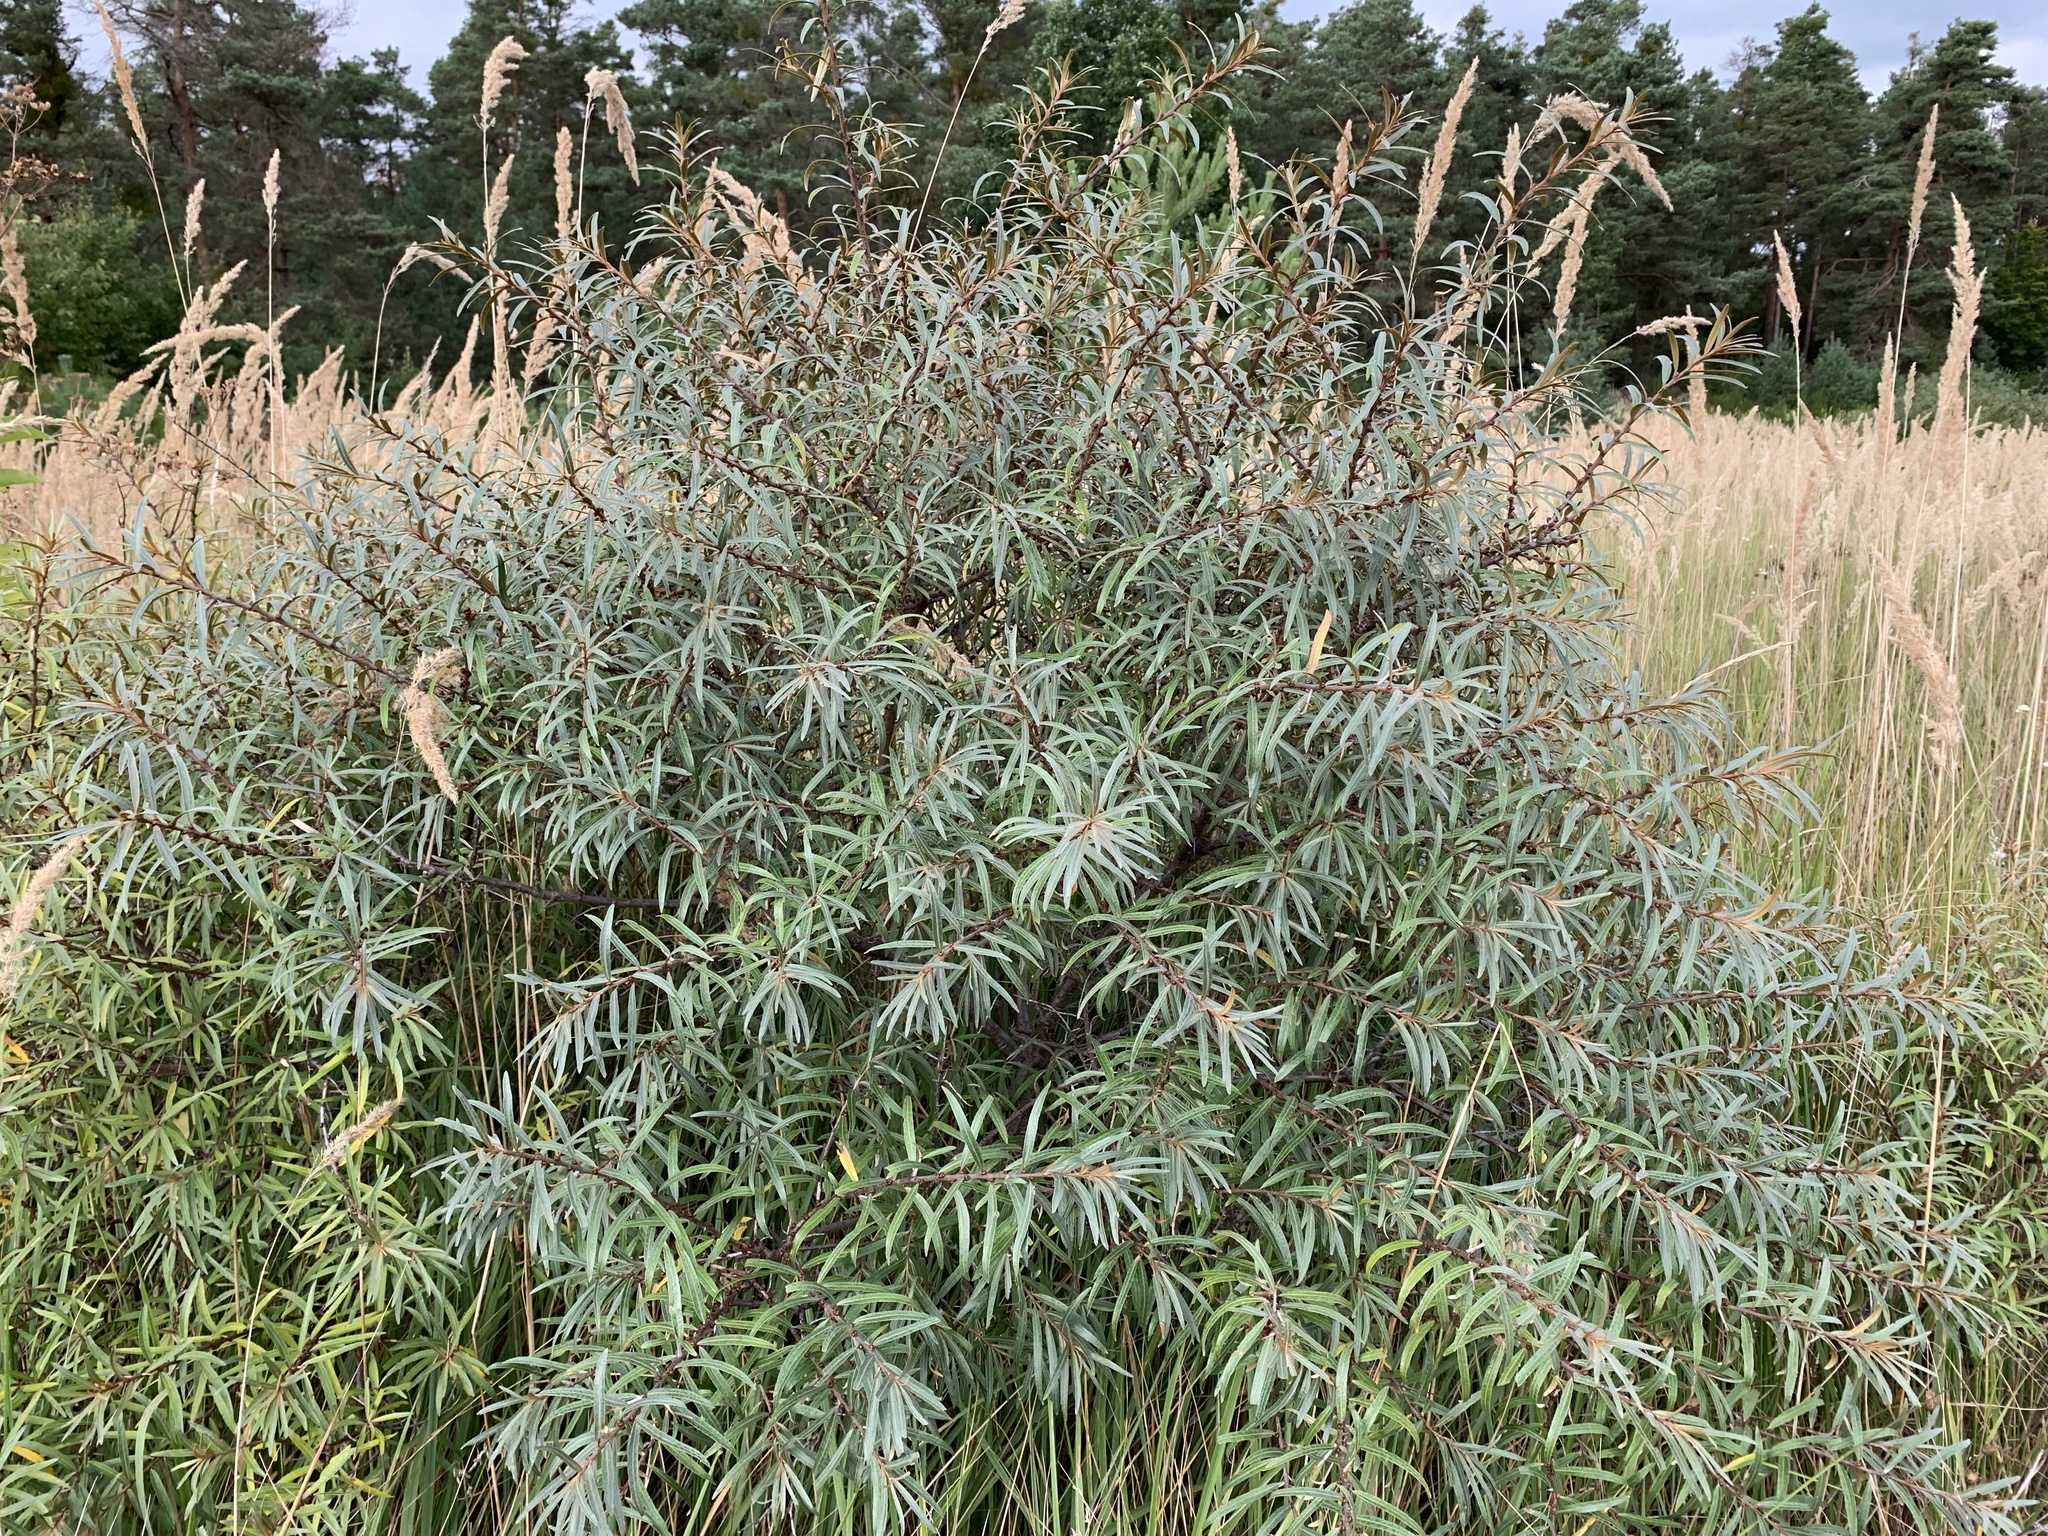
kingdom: Plantae
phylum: Tracheophyta
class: Magnoliopsida
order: Rosales
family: Elaeagnaceae
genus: Hippophae
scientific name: Hippophae rhamnoides
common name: Sea-buckthorn
